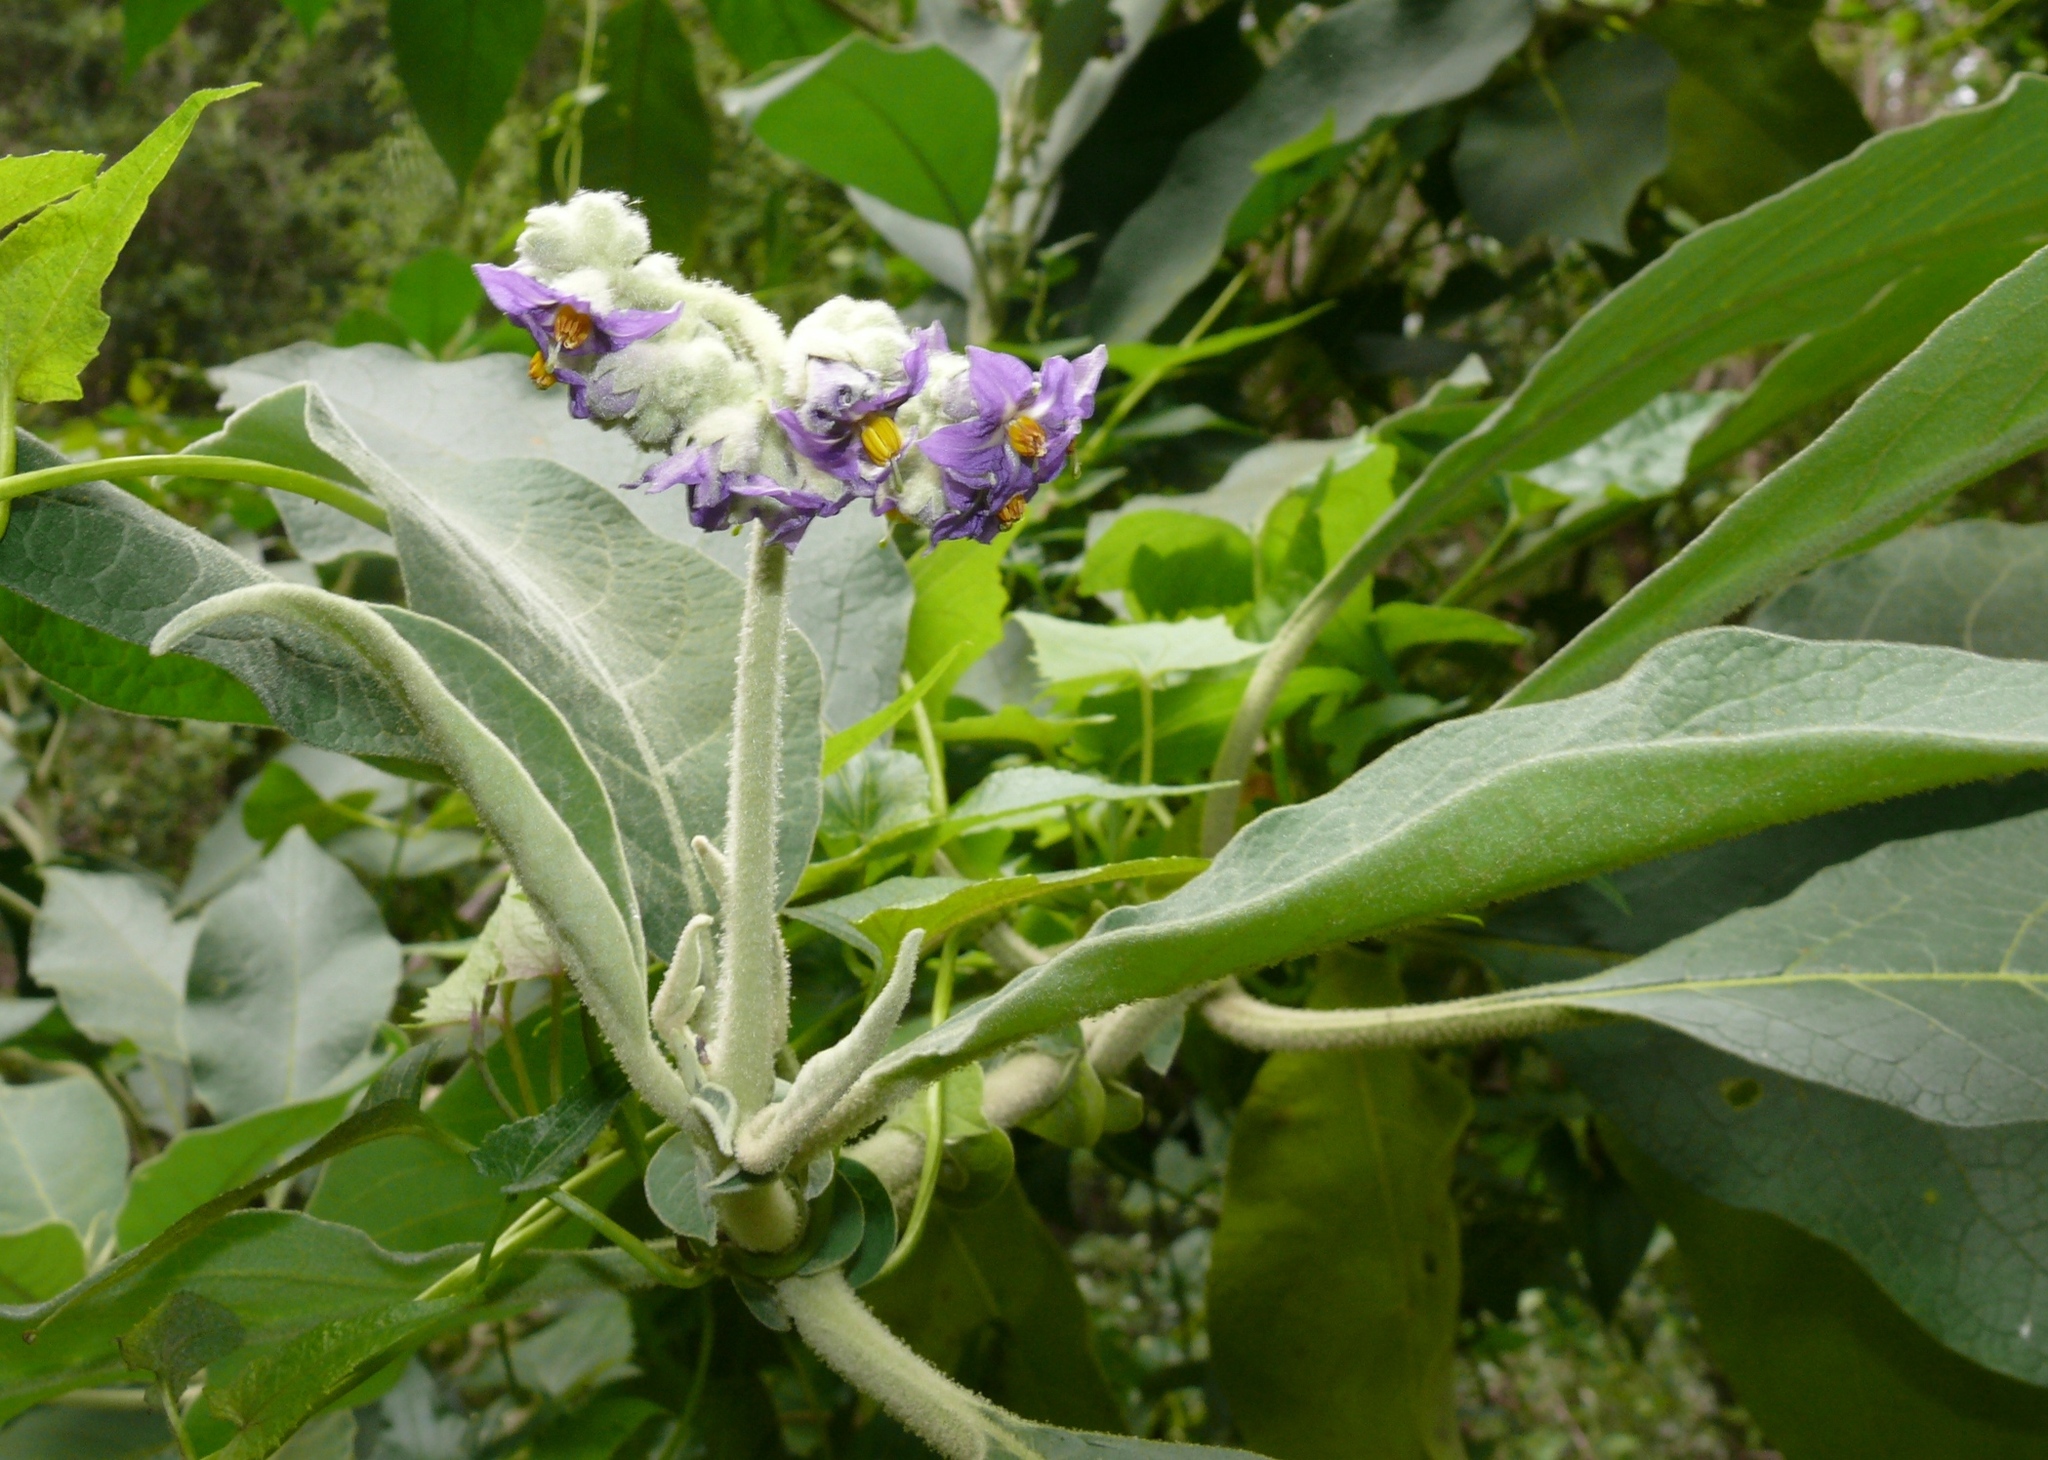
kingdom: Plantae
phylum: Tracheophyta
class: Magnoliopsida
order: Solanales
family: Solanaceae
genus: Solanum
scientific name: Solanum mauritianum
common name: Earleaf nightshade
